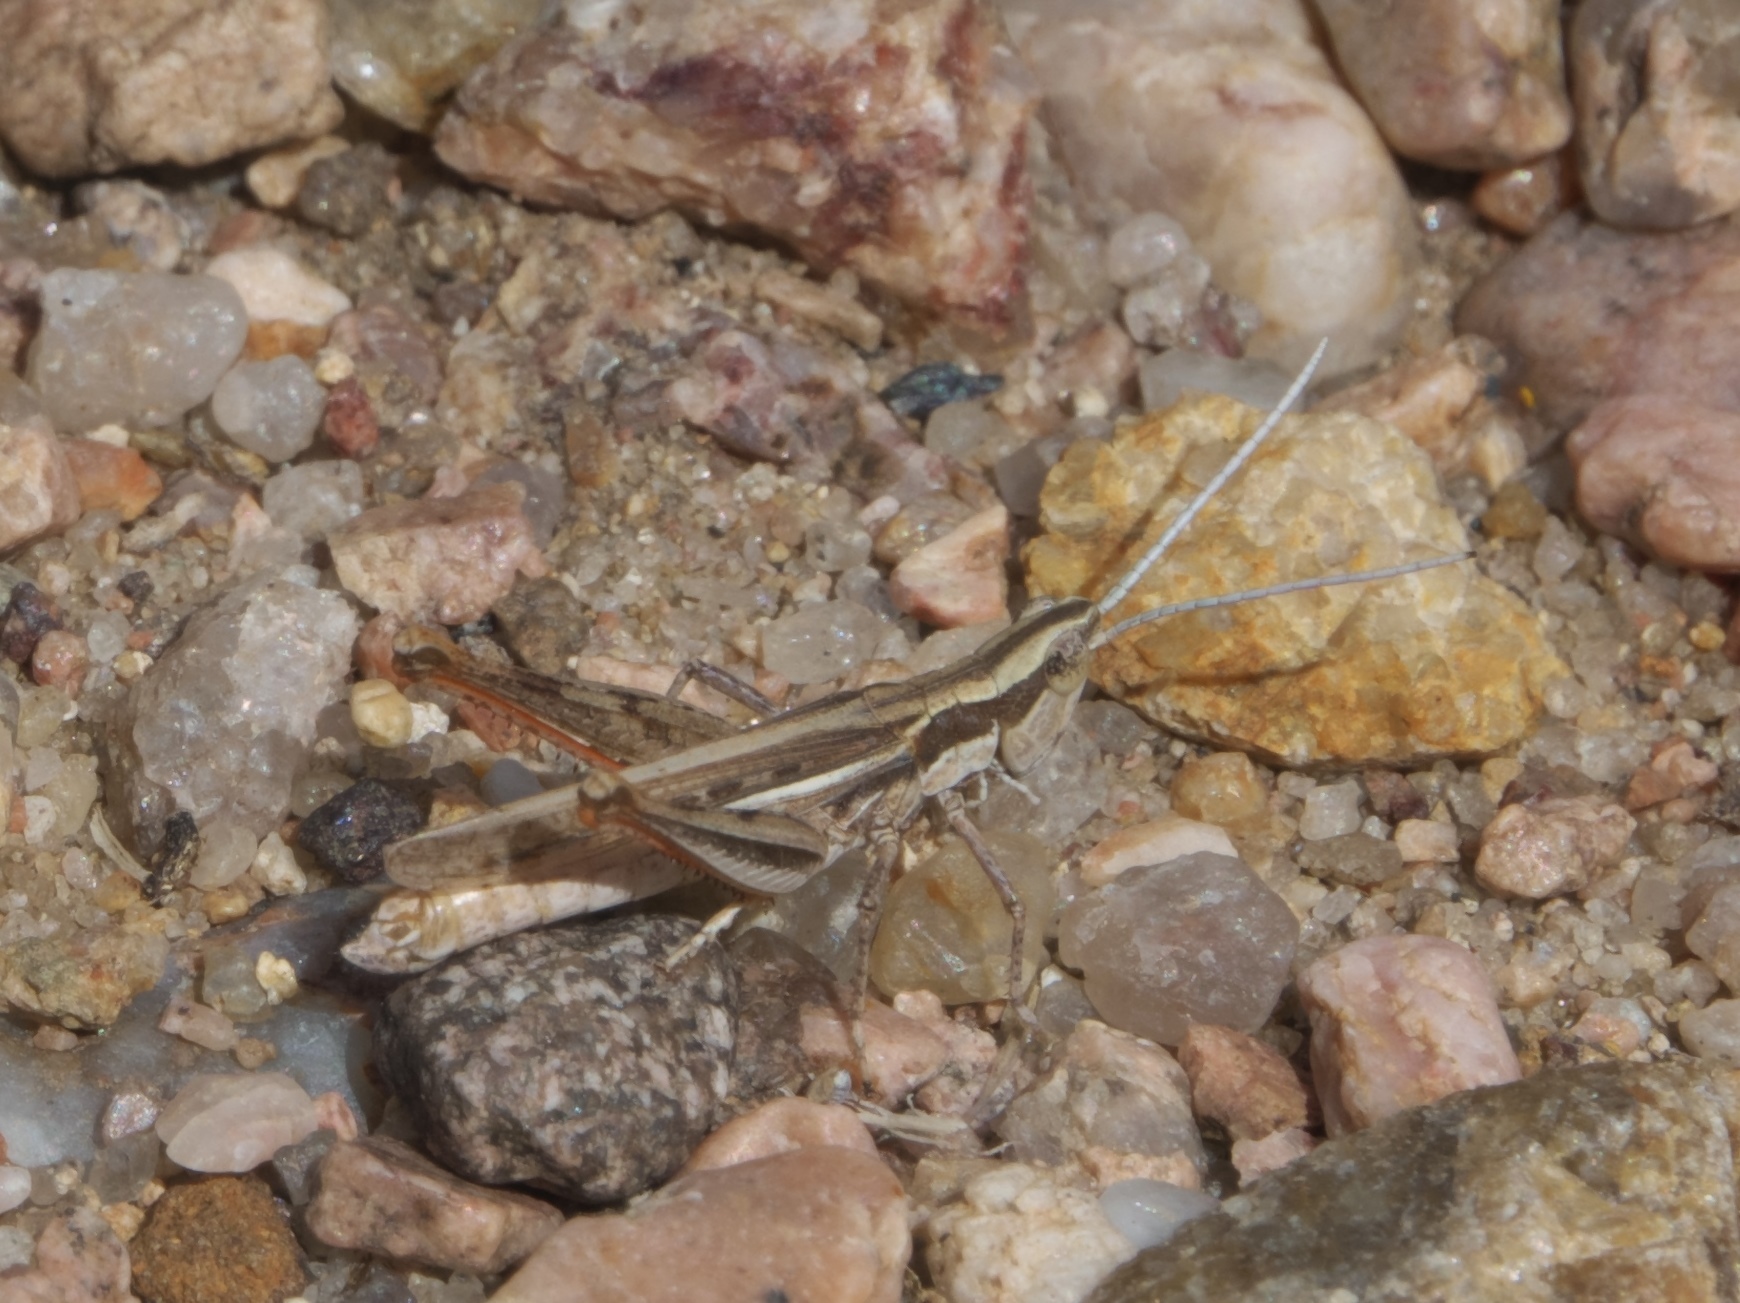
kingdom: Animalia
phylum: Arthropoda
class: Insecta
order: Orthoptera
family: Acrididae
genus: Cordillacris
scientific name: Cordillacris occipitalis
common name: Spotted-winged grasshopper
